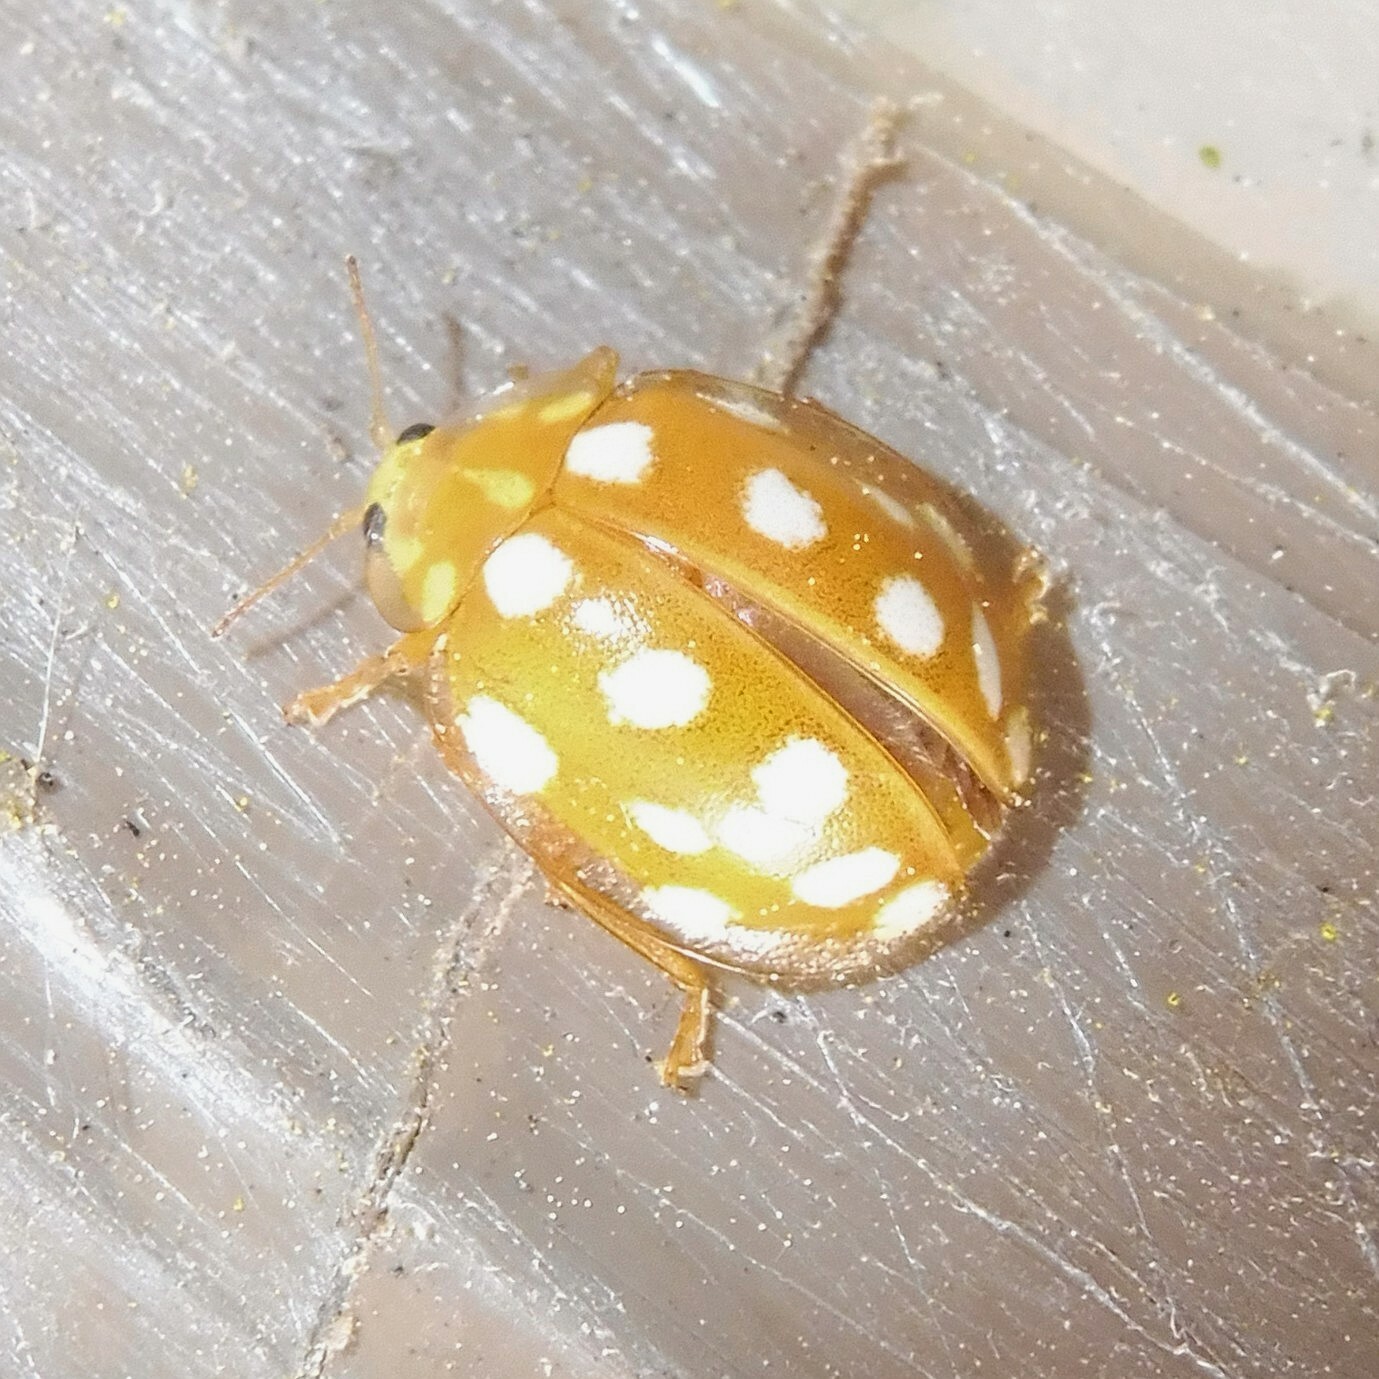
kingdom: Animalia
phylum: Arthropoda
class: Insecta
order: Coleoptera
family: Coccinellidae
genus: Halyzia
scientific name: Halyzia sedecimguttata
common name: Orange ladybird
